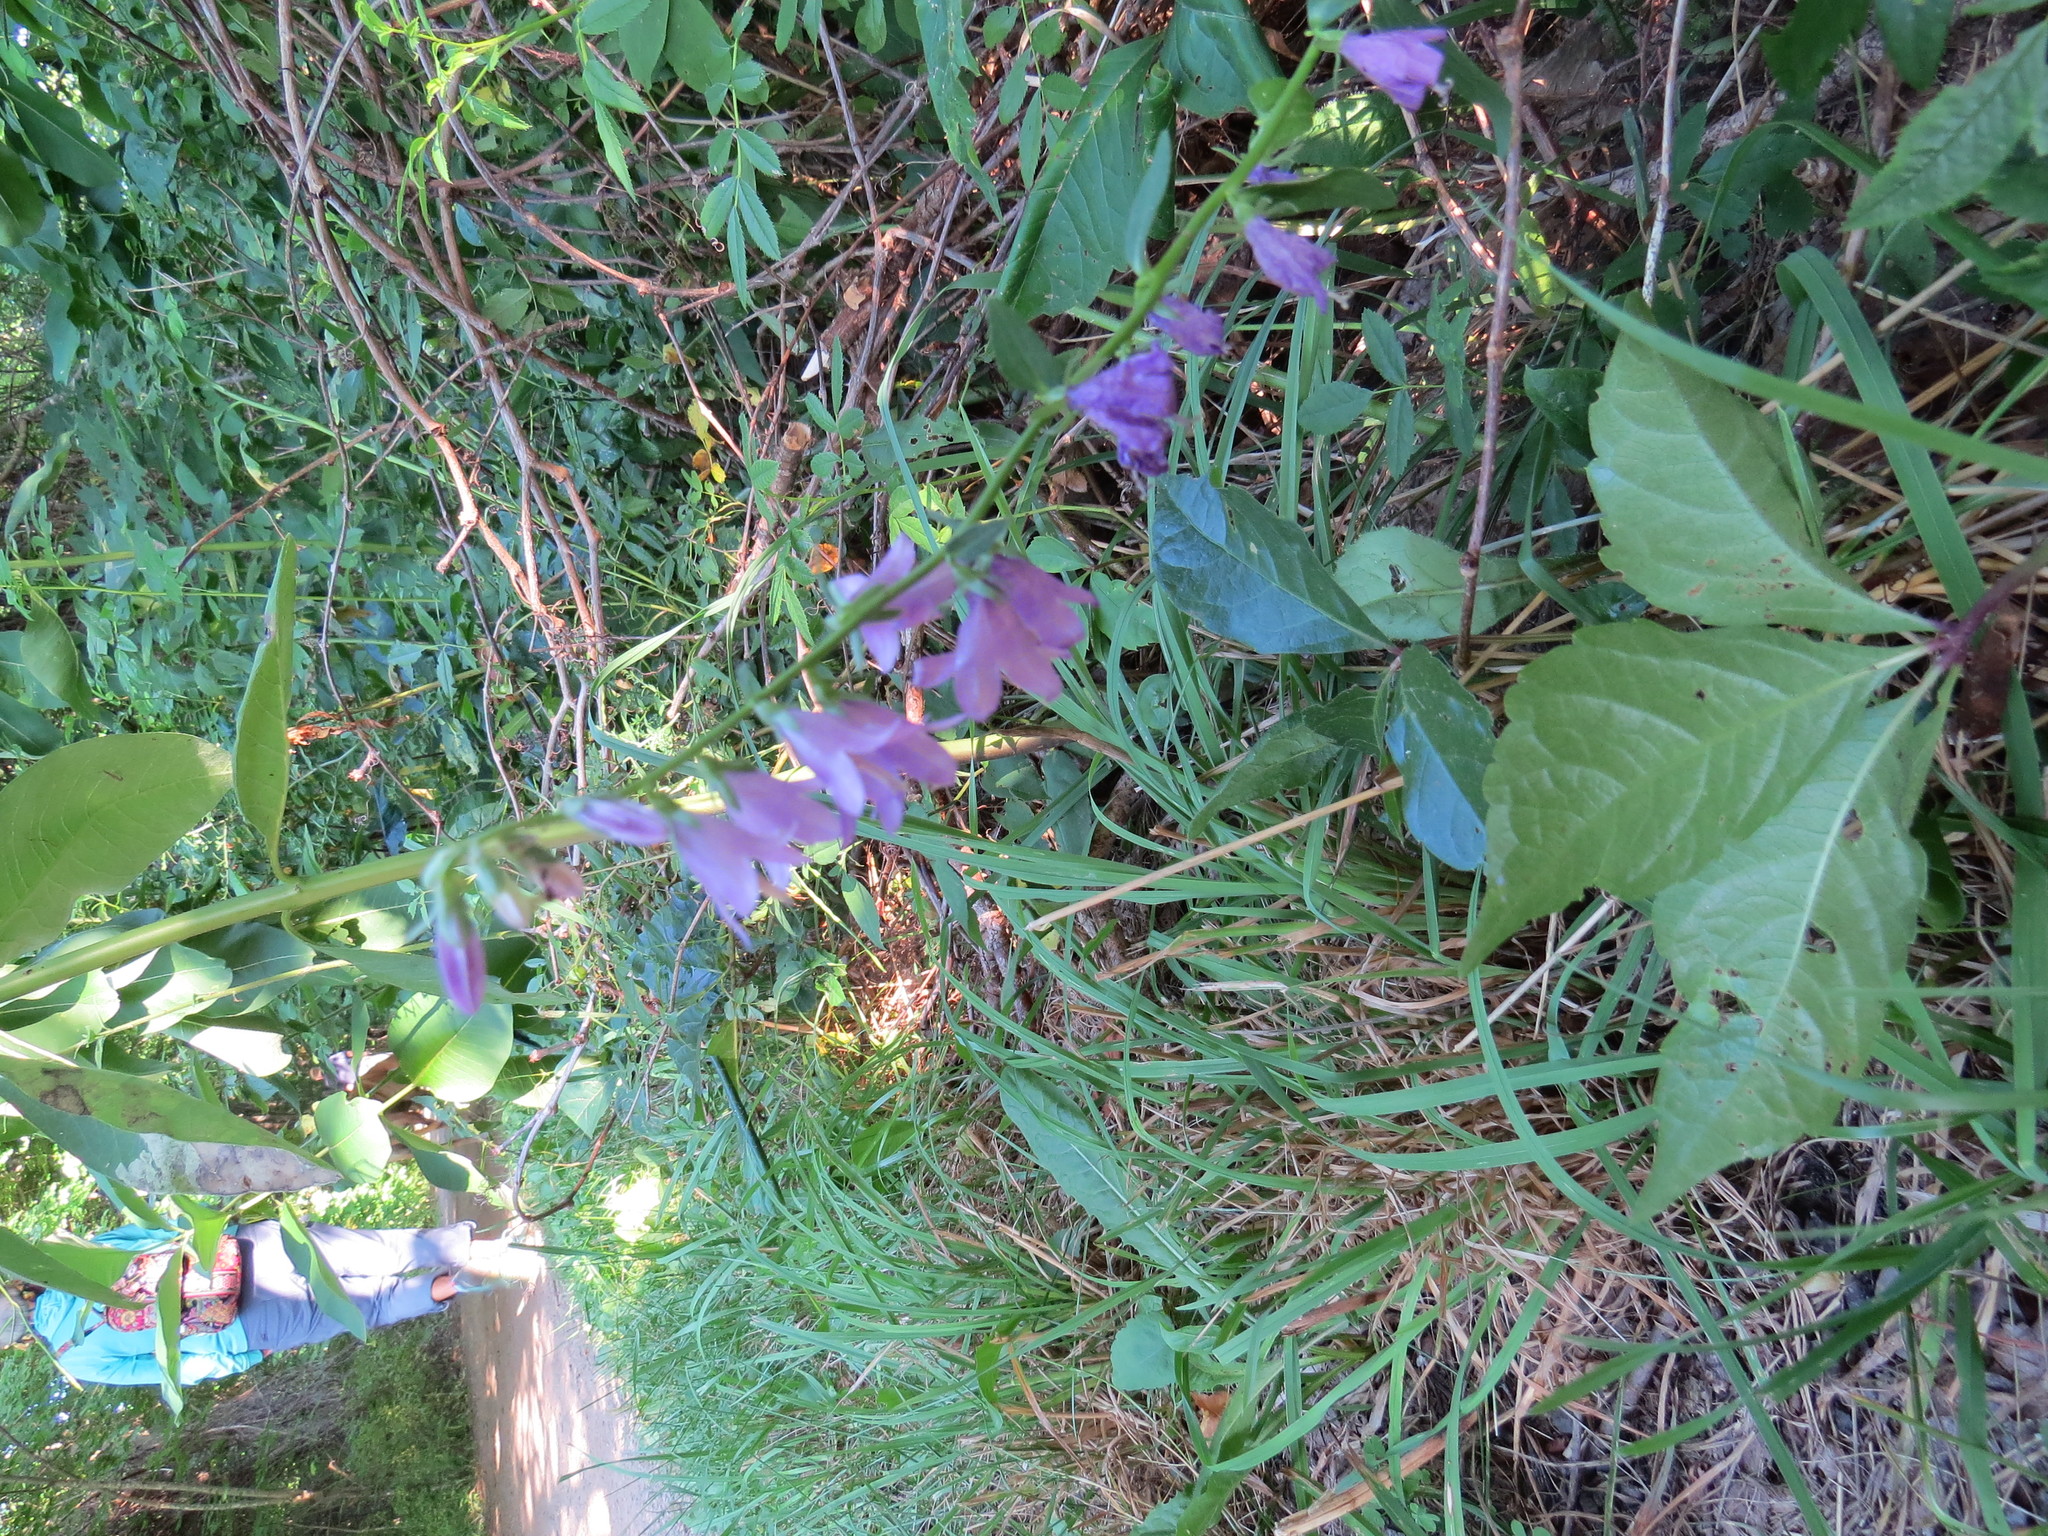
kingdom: Plantae
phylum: Tracheophyta
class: Magnoliopsida
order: Asterales
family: Campanulaceae
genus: Campanula
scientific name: Campanula rapunculoides
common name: Creeping bellflower
